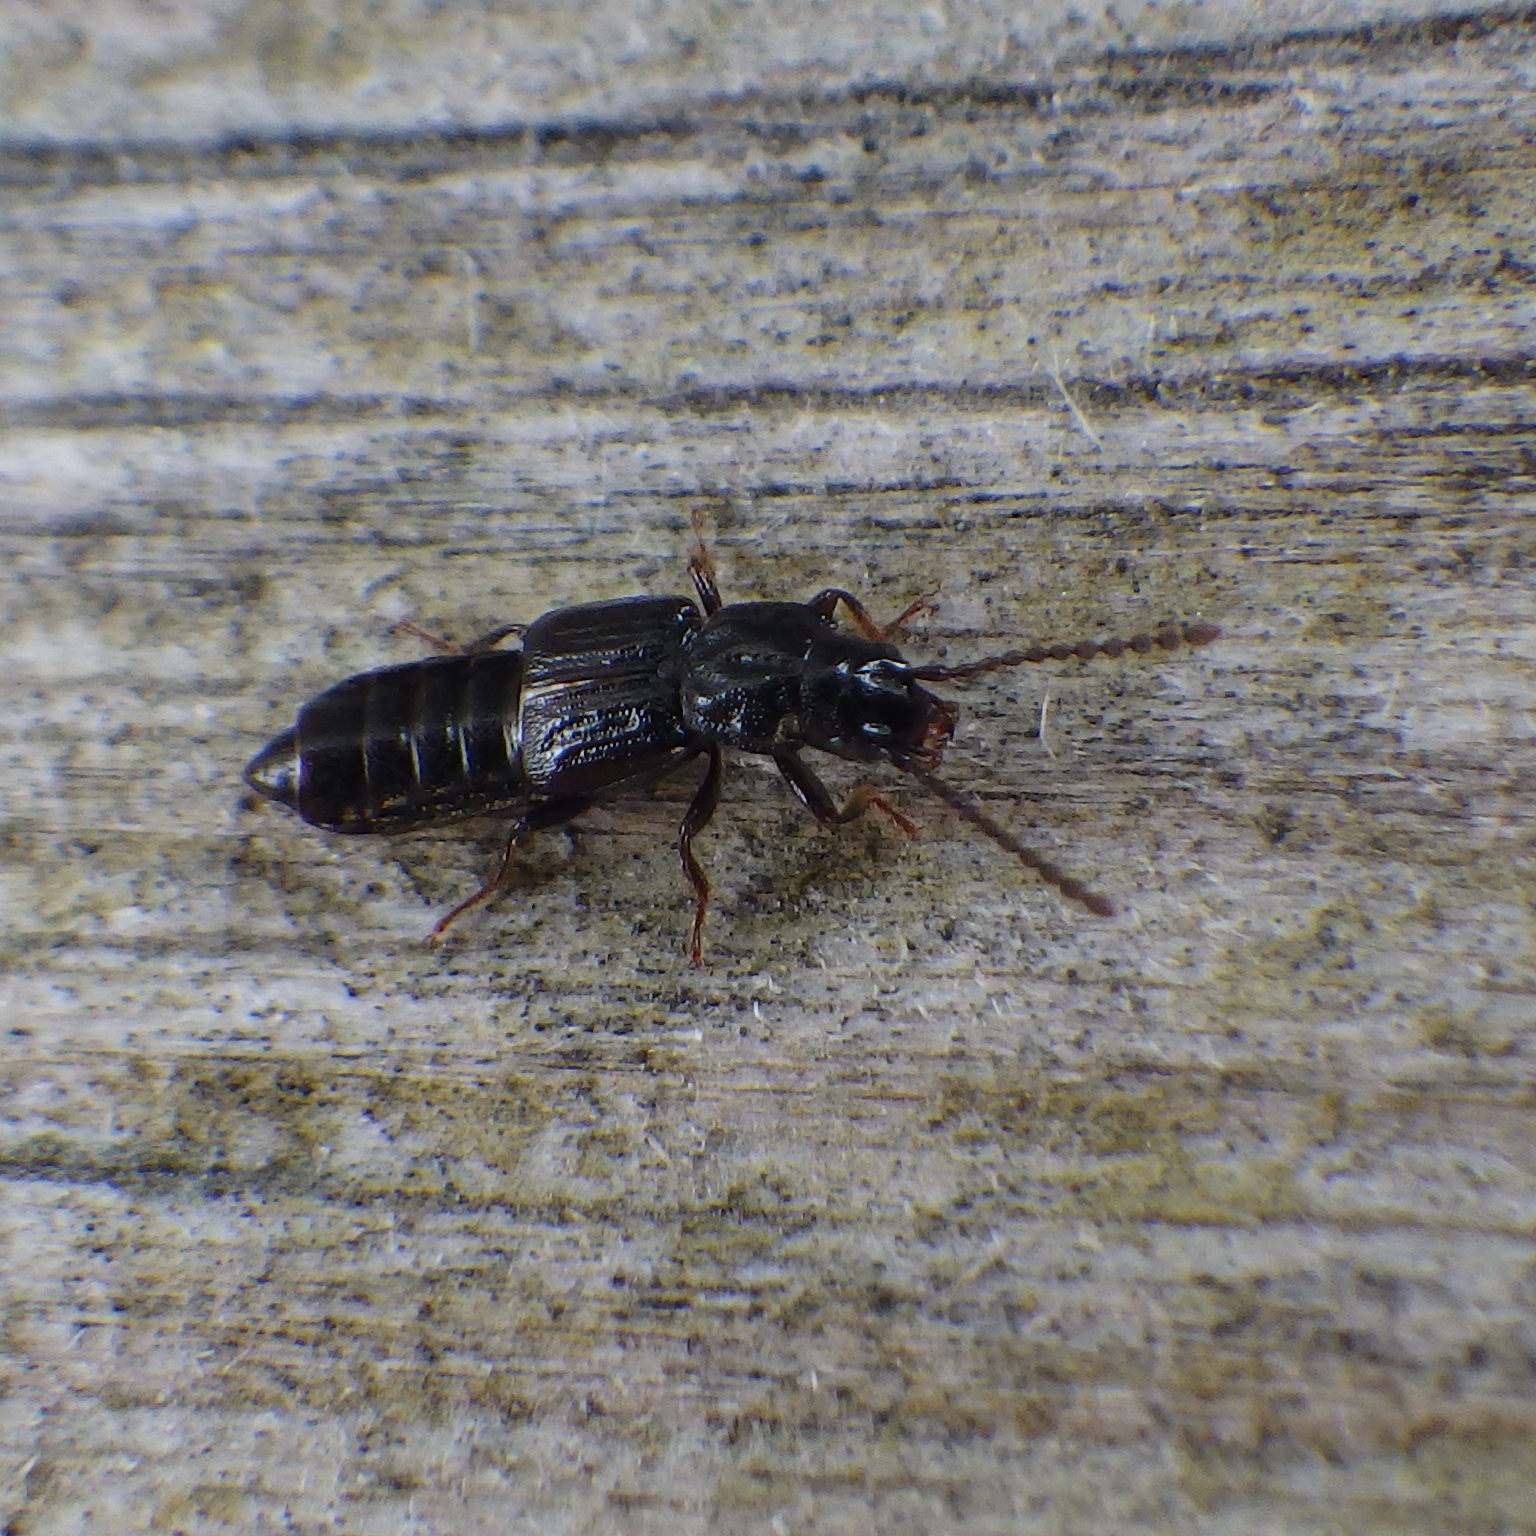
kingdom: Animalia
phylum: Arthropoda
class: Insecta
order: Coleoptera
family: Staphylinidae
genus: Coprophilus
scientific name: Coprophilus striatulus
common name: Rove beetle
